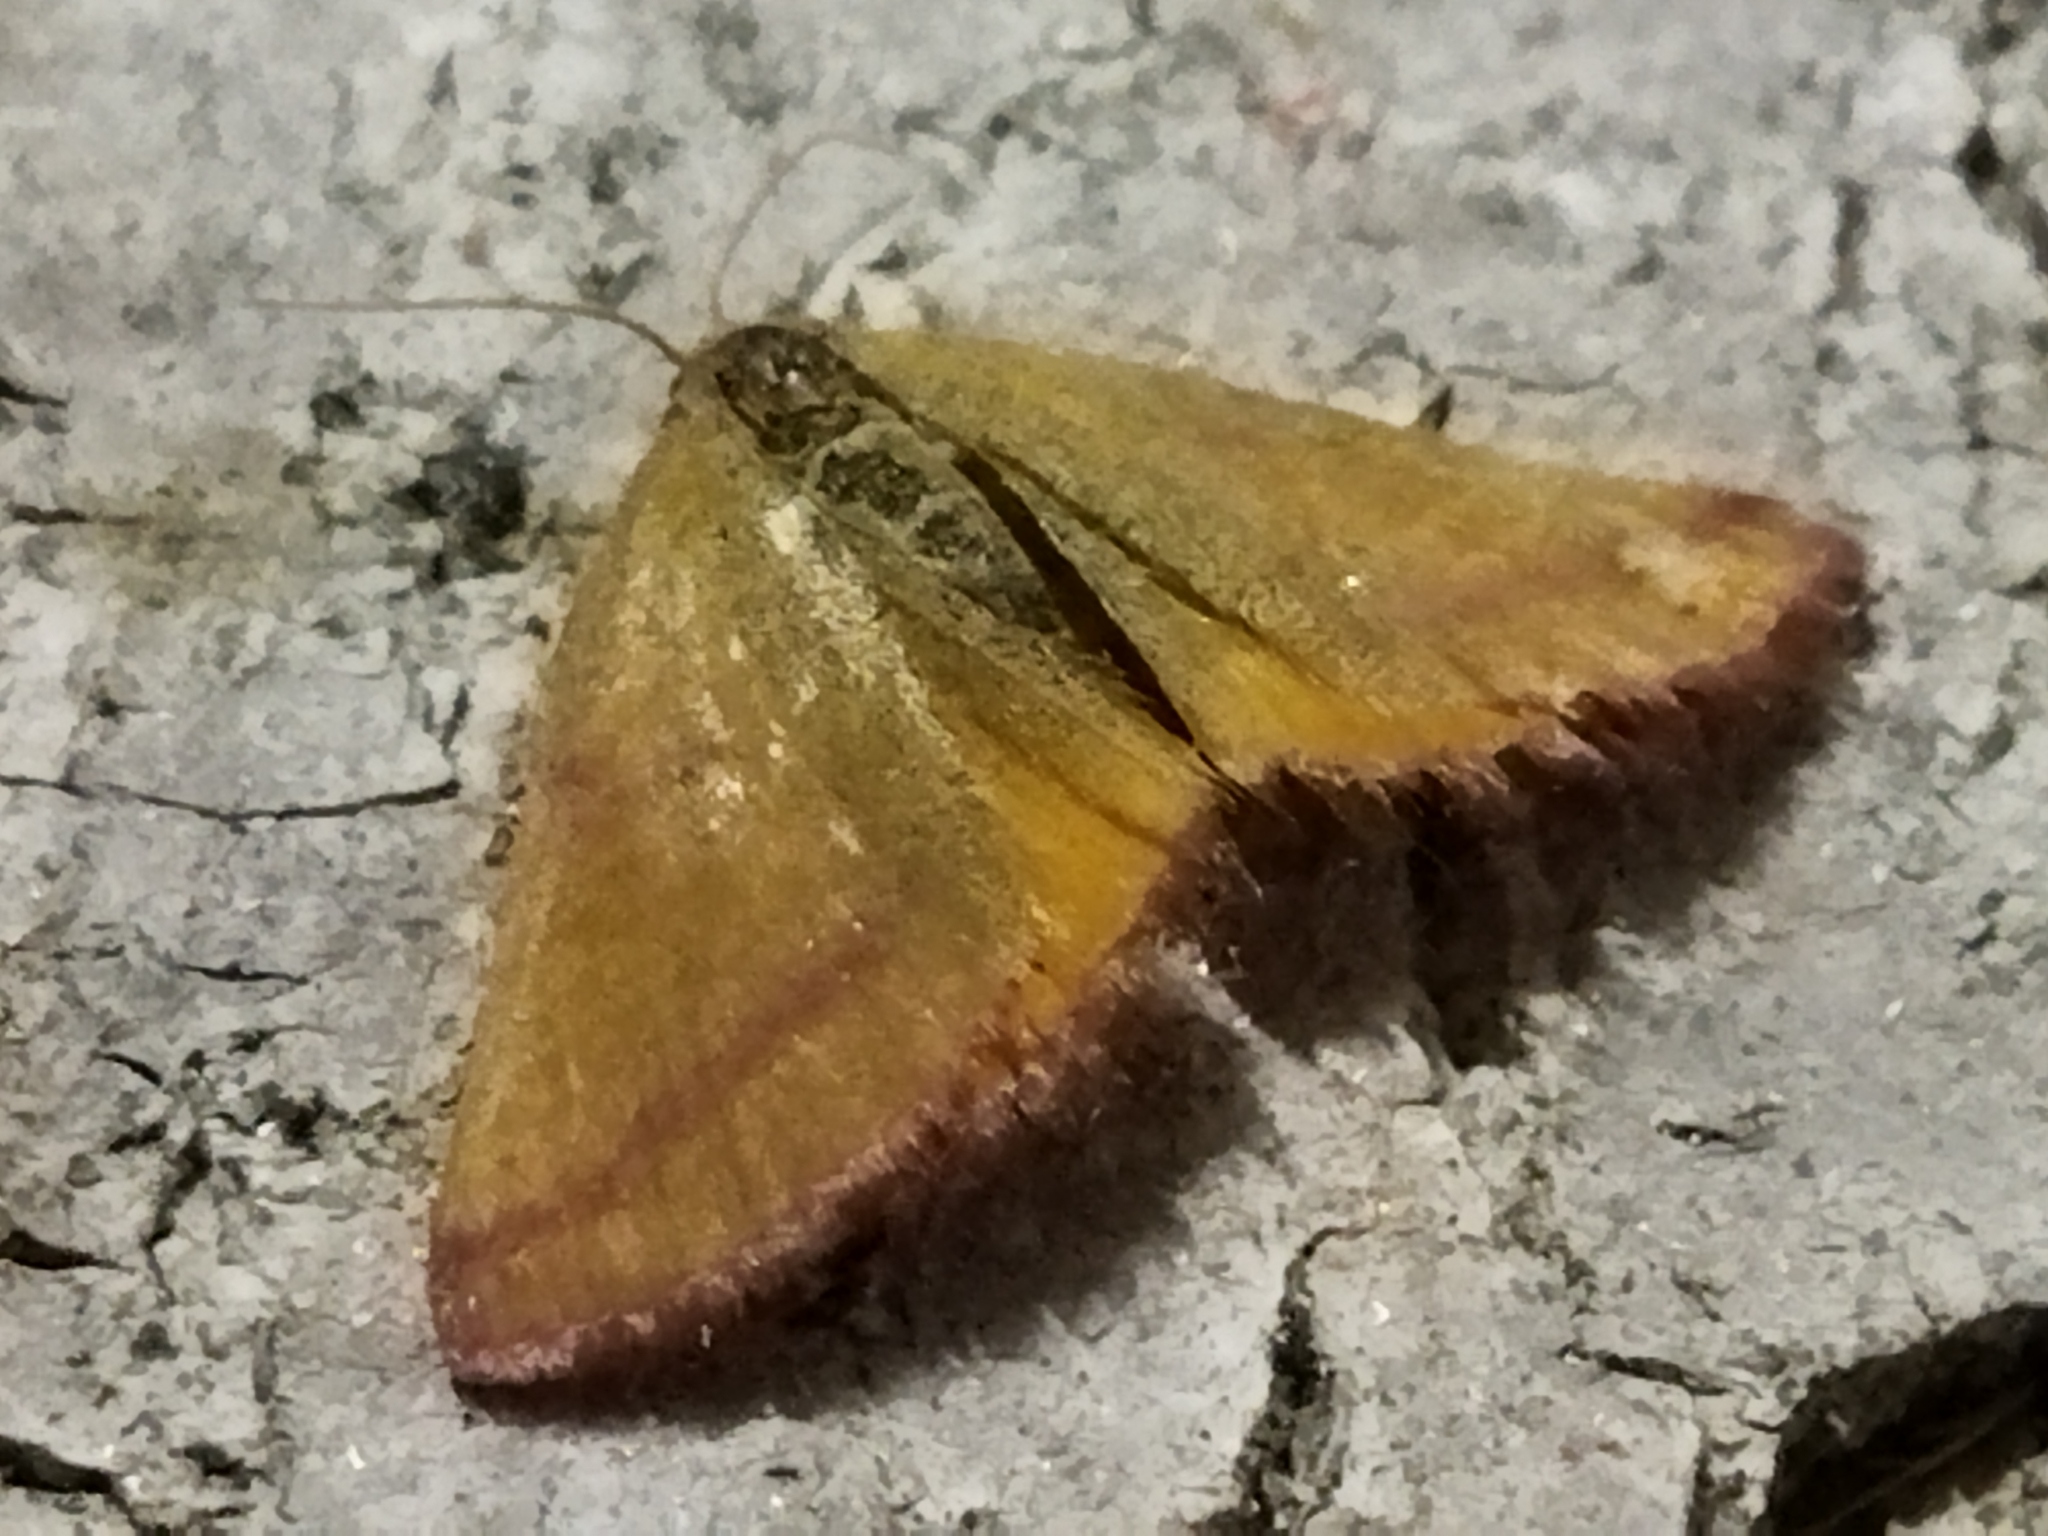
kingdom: Animalia
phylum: Arthropoda
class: Insecta
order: Lepidoptera
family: Geometridae
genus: Lythria
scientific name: Lythria purpuraria
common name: Purple-barred yellow
